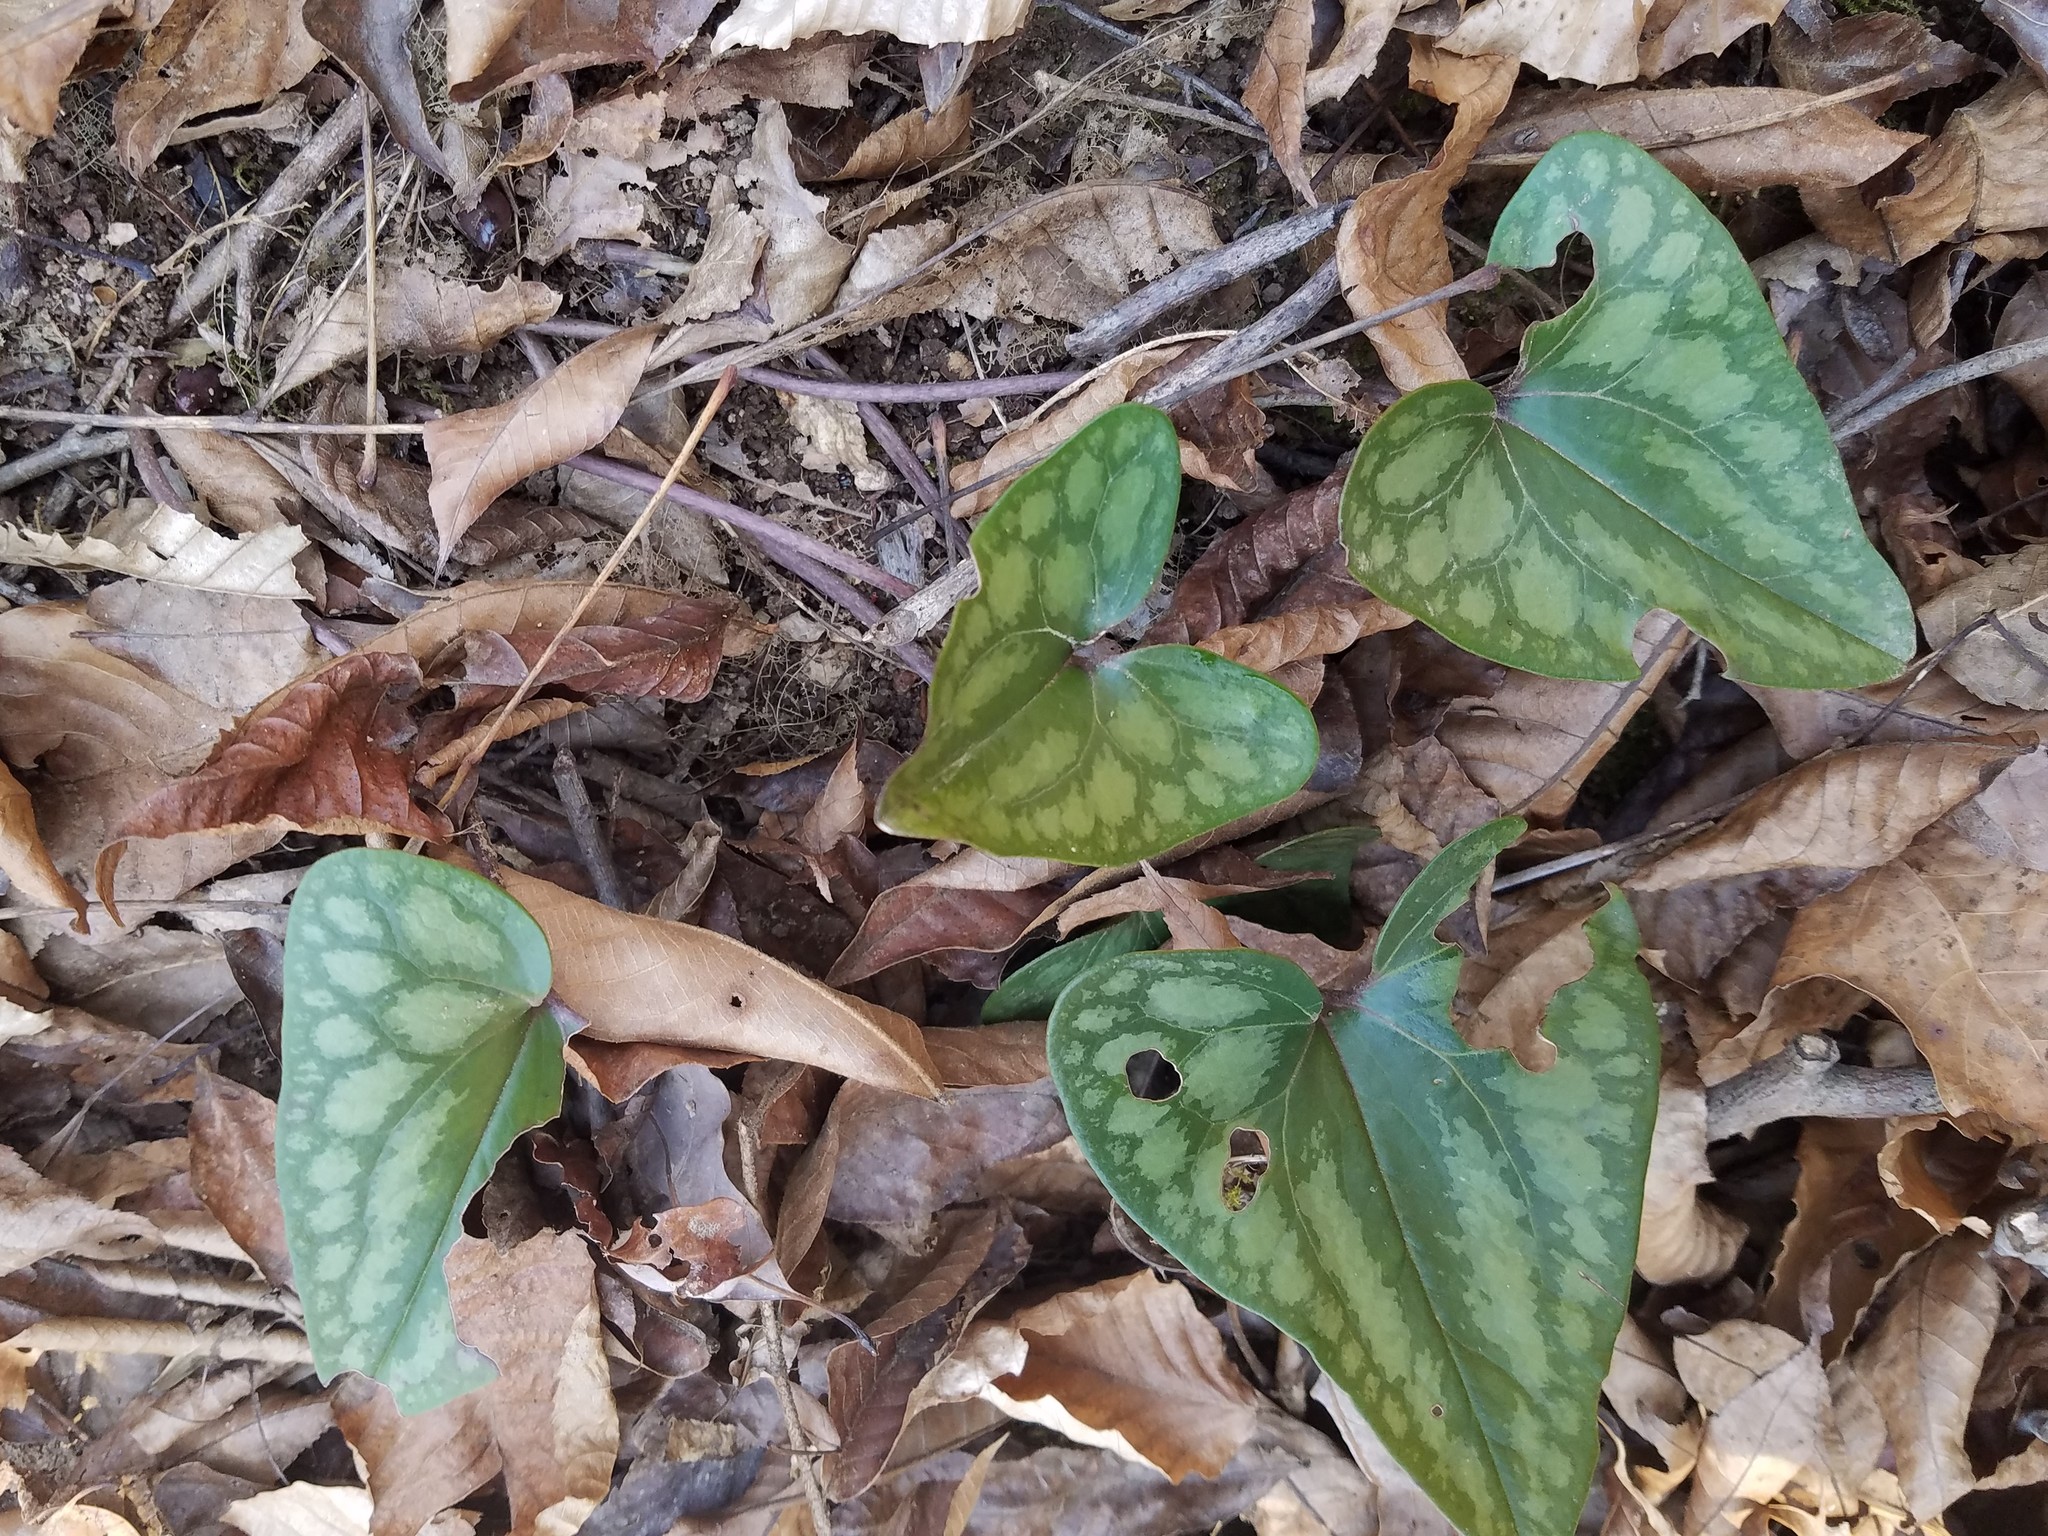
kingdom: Plantae
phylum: Tracheophyta
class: Magnoliopsida
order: Piperales
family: Aristolochiaceae
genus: Hexastylis
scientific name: Hexastylis arifolia
